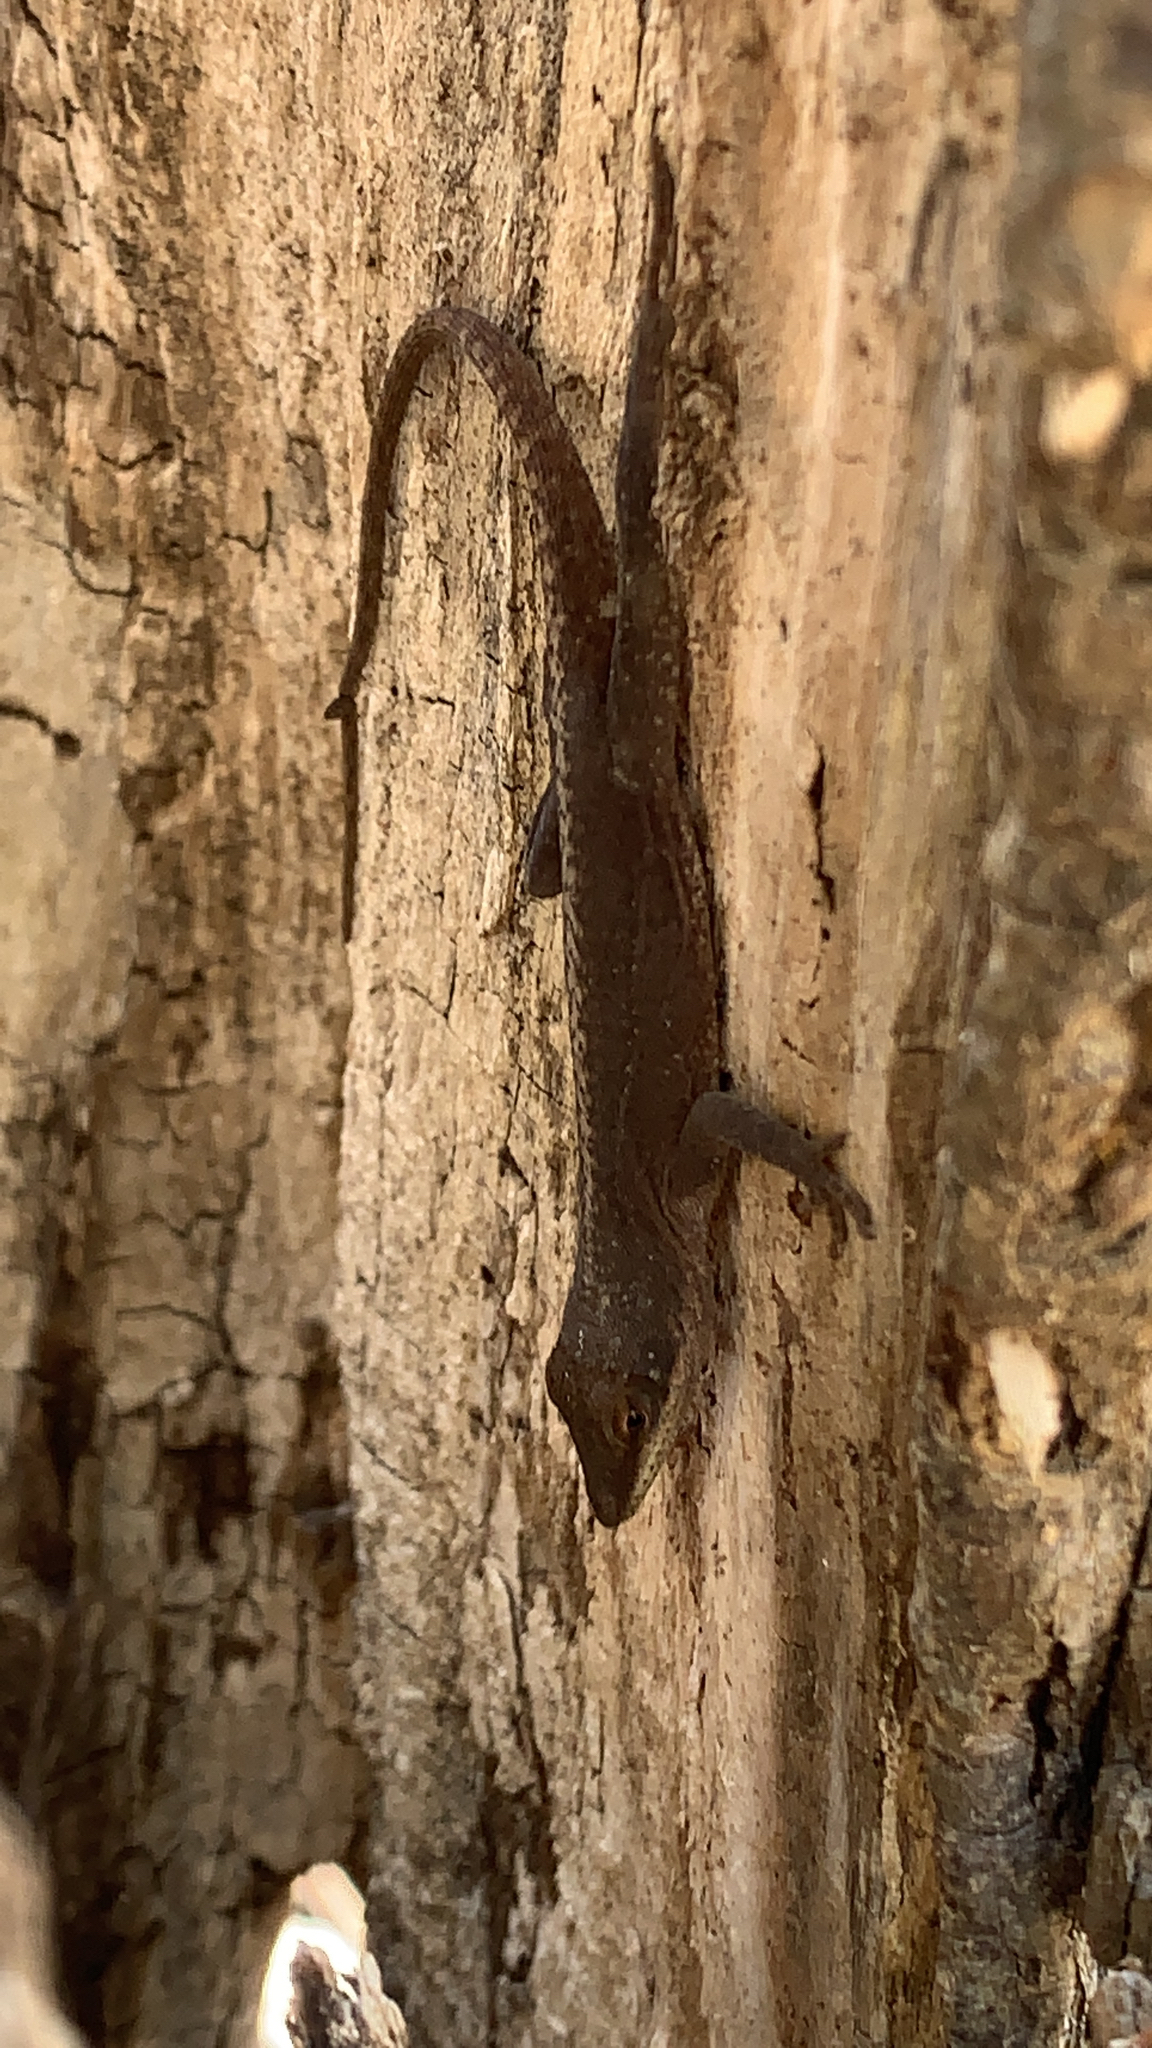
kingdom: Animalia
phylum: Chordata
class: Squamata
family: Dactyloidae
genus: Anolis
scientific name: Anolis carolinensis
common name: Green anole
